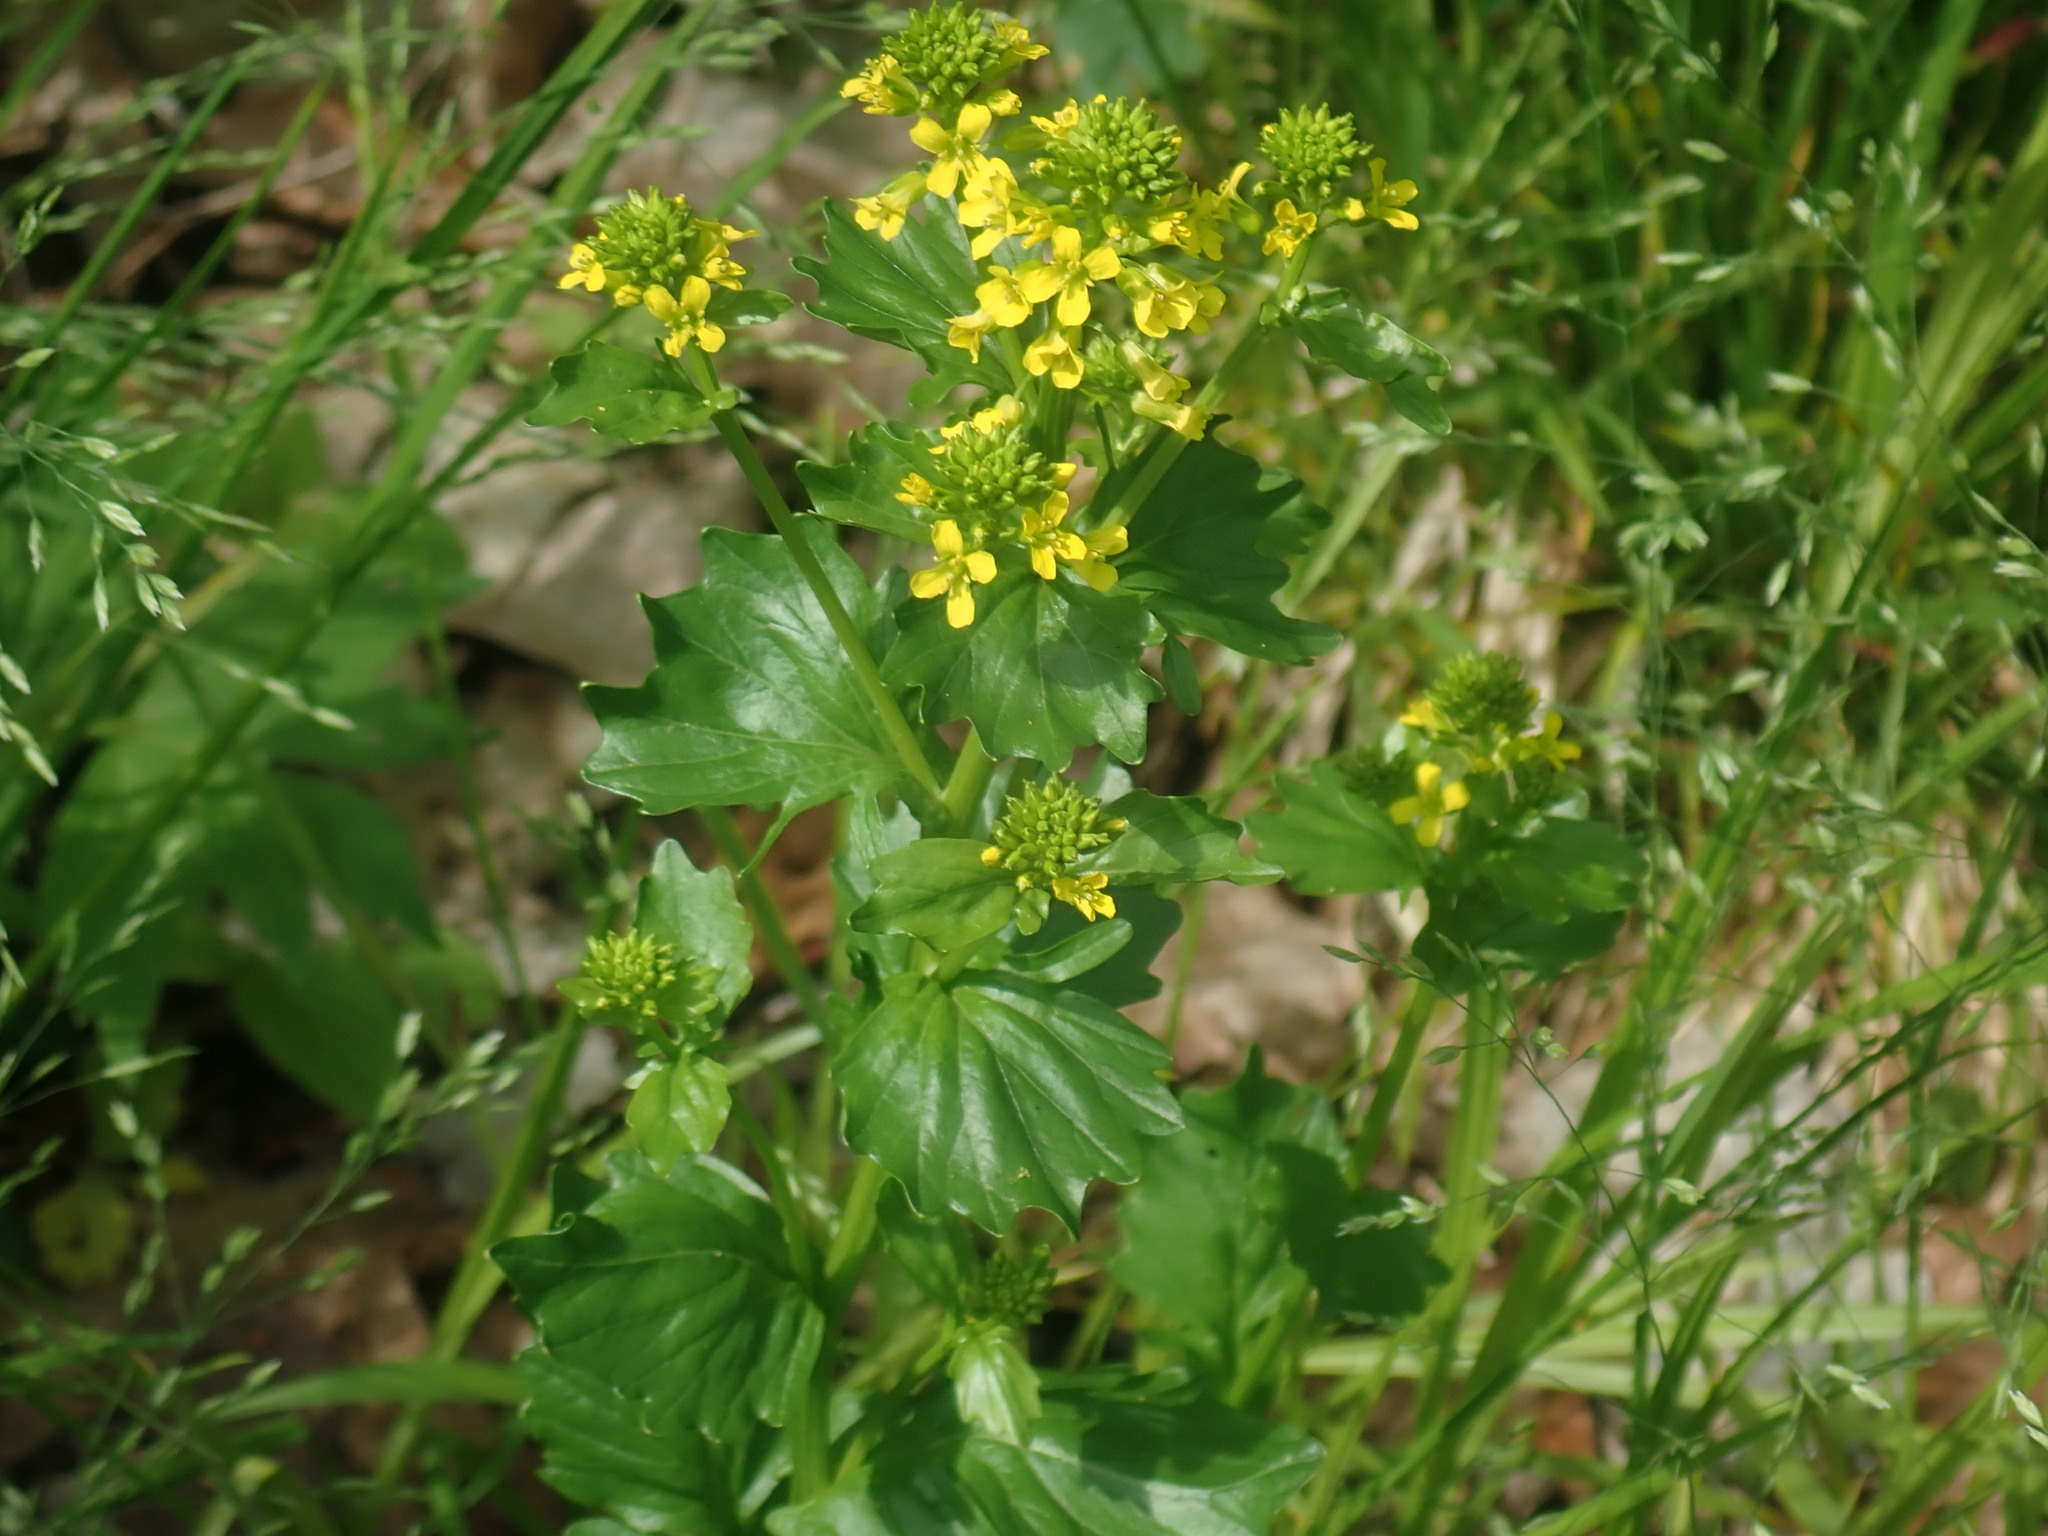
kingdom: Plantae
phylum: Tracheophyta
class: Magnoliopsida
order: Brassicales
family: Brassicaceae
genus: Barbarea
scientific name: Barbarea vulgaris
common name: Cressy-greens
